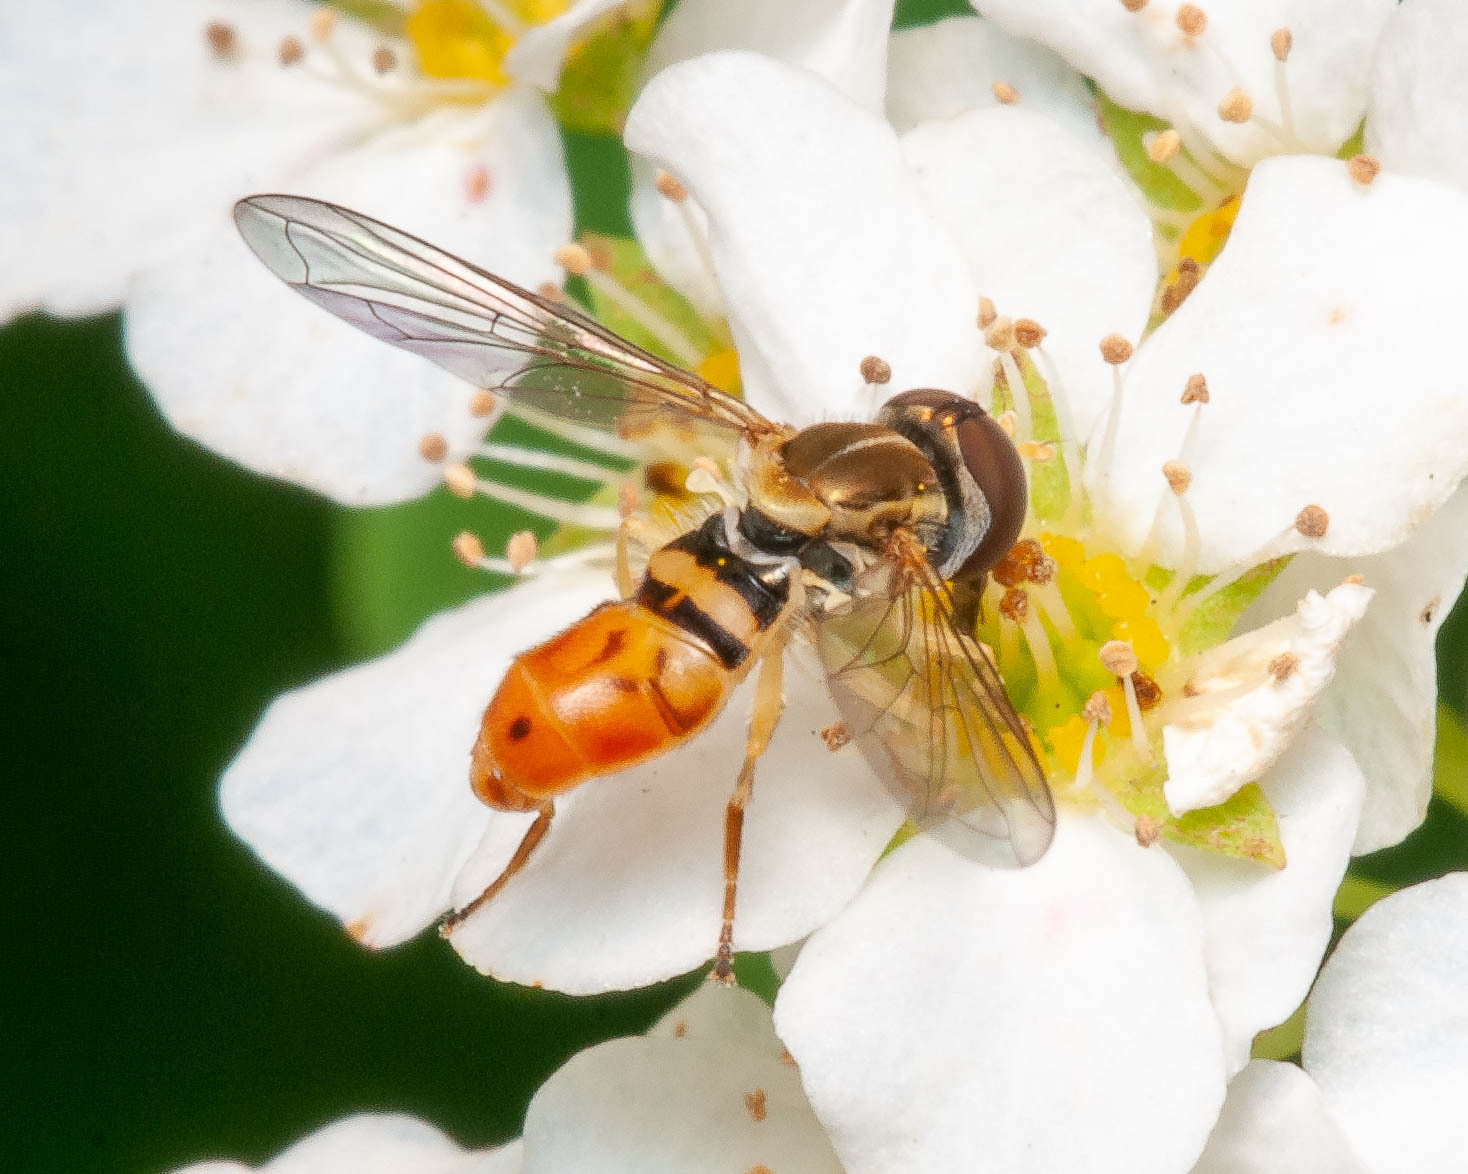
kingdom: Animalia
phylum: Arthropoda
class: Insecta
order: Diptera
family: Syrphidae
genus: Toxomerus
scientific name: Toxomerus marginatus
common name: Syrphid fly
